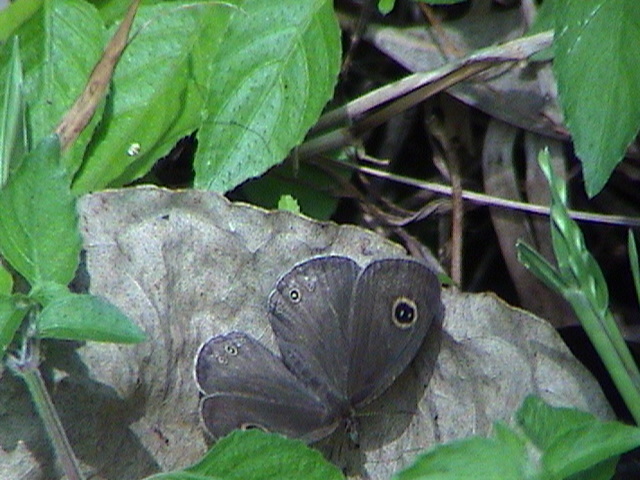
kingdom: Animalia
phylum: Arthropoda
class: Insecta
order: Lepidoptera
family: Nymphalidae
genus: Ypthima
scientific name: Ypthima huebneri
